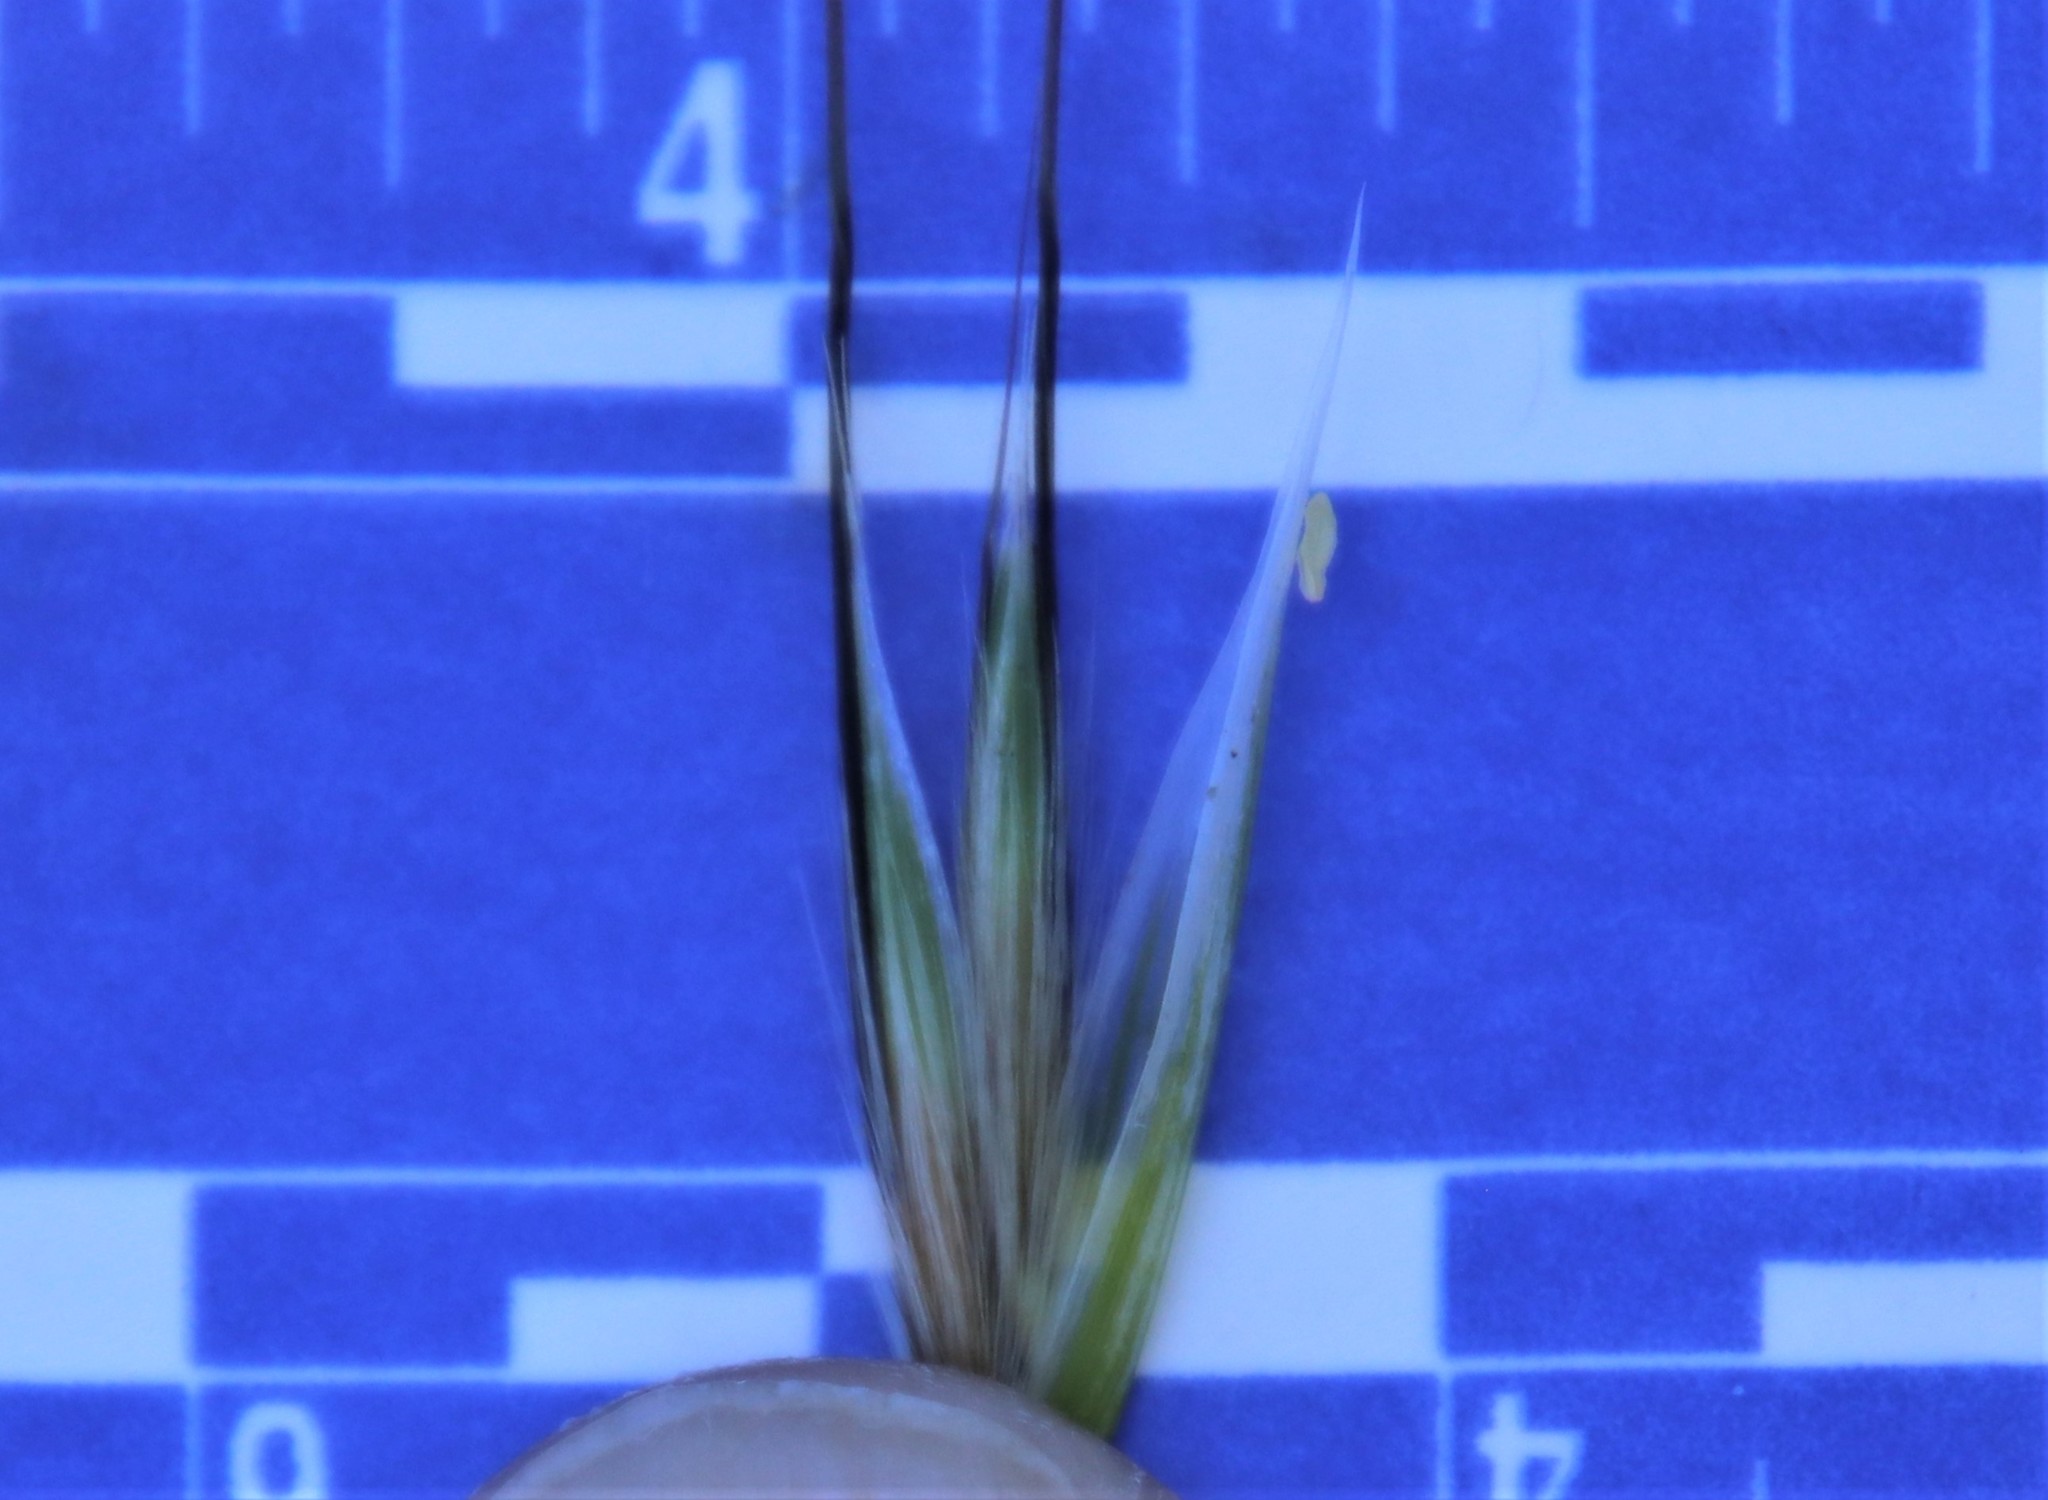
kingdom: Plantae
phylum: Tracheophyta
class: Liliopsida
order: Poales
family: Poaceae
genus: Avena
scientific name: Avena barbata
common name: Slender oat
